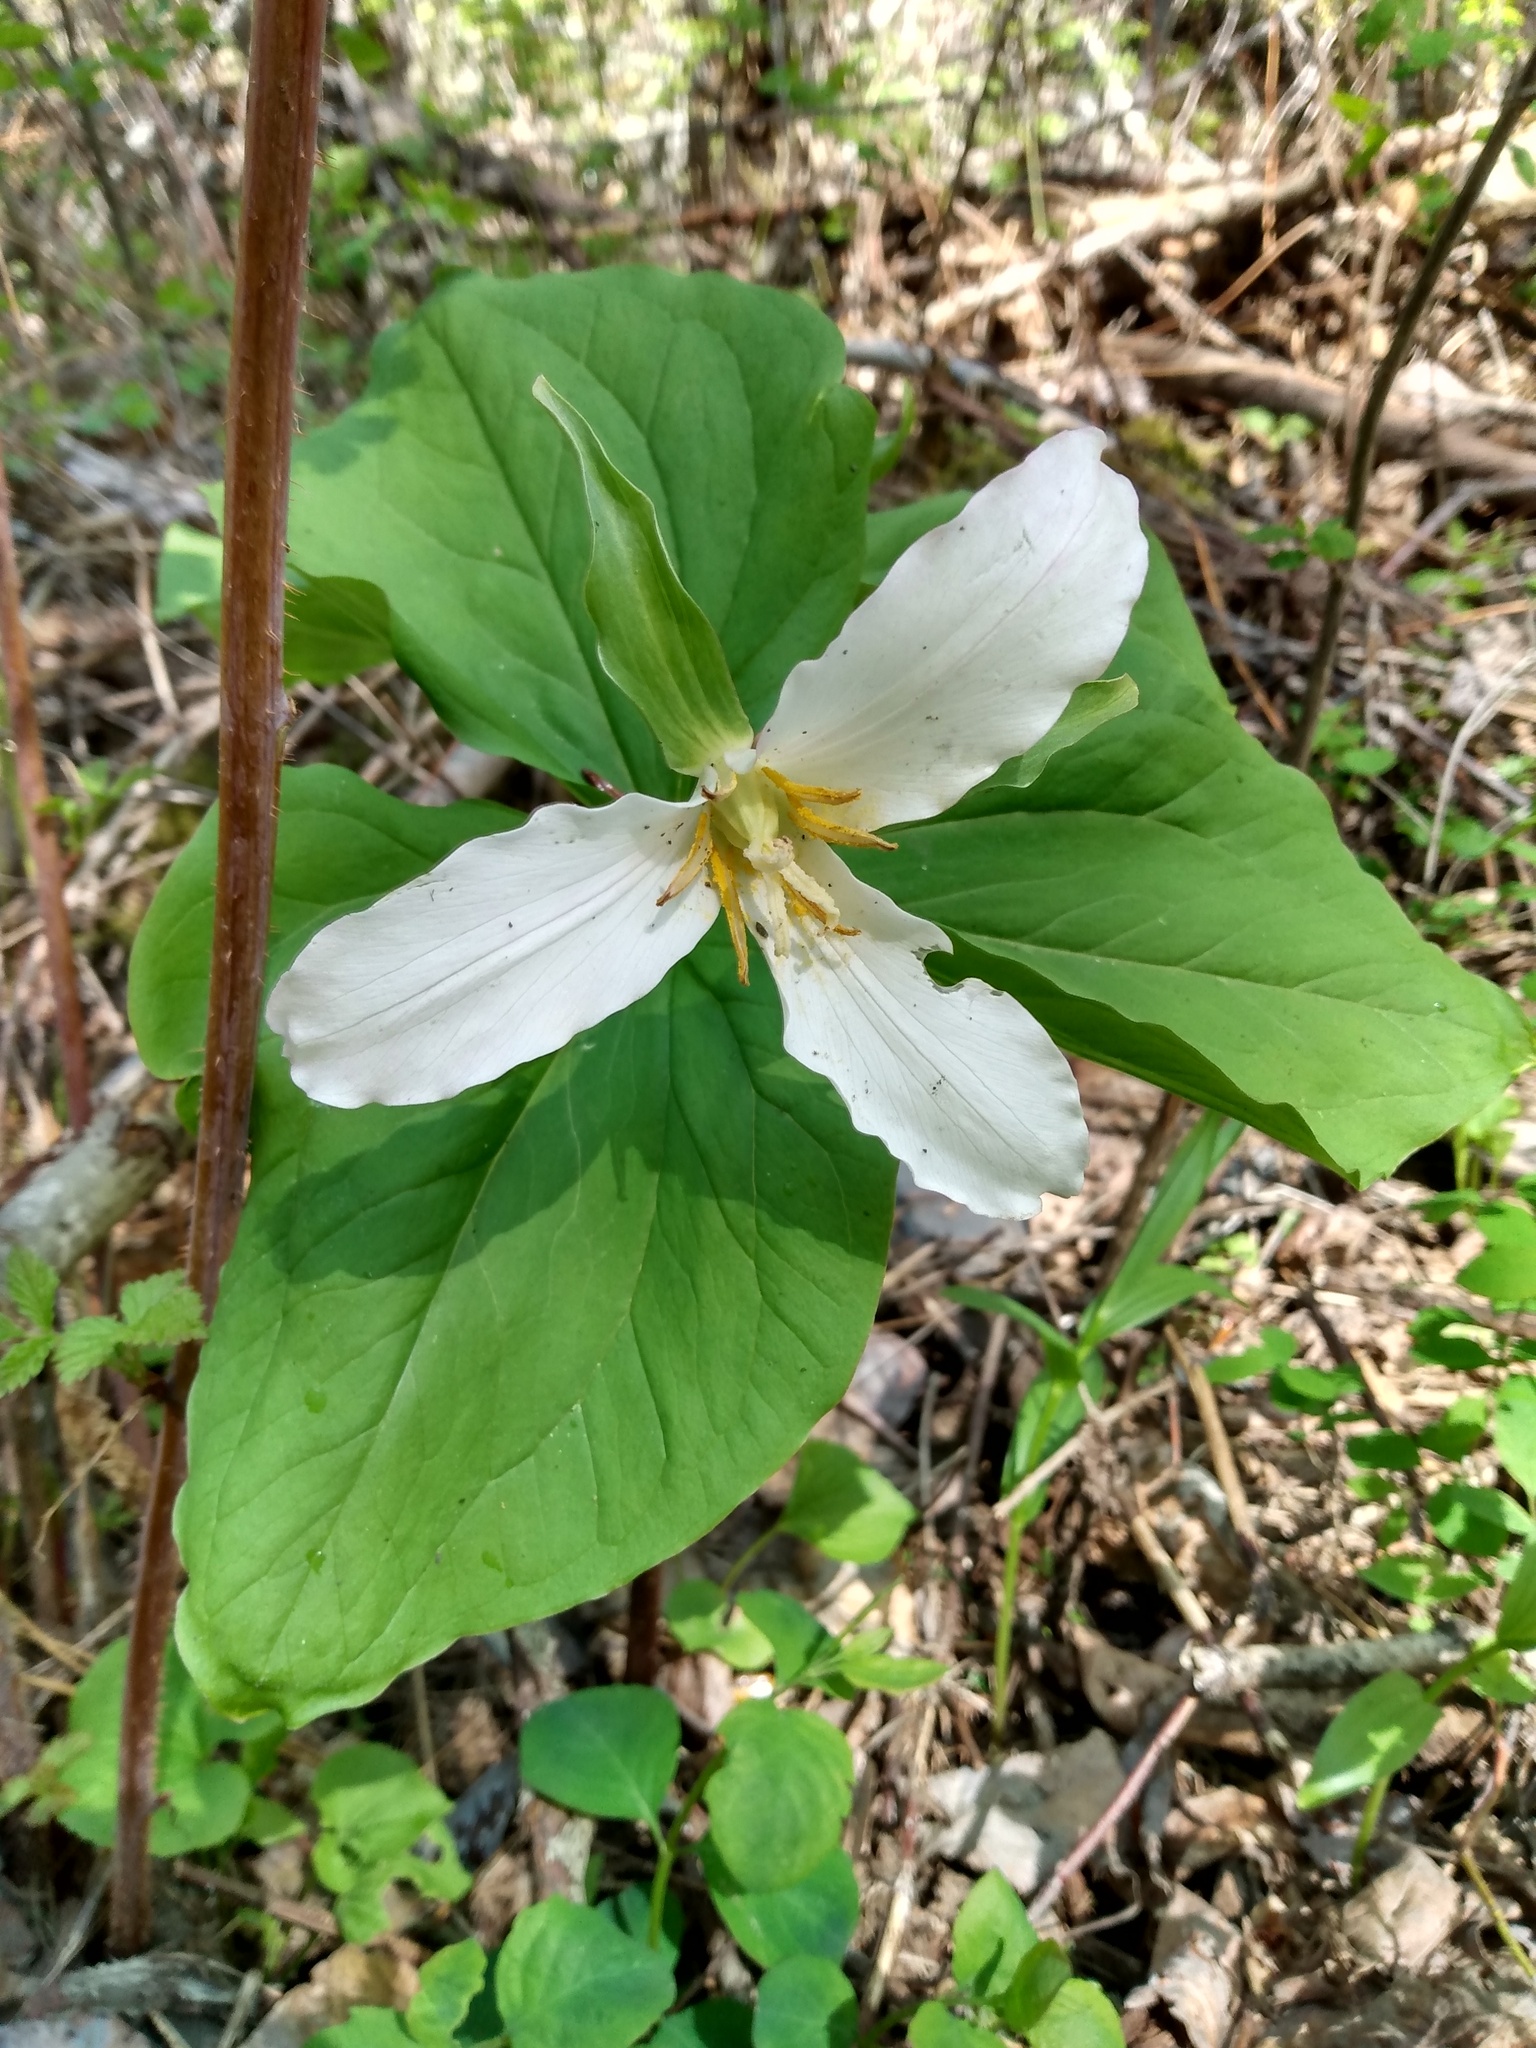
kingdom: Plantae
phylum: Tracheophyta
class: Liliopsida
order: Liliales
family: Melanthiaceae
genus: Trillium
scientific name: Trillium ovatum
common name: Pacific trillium
